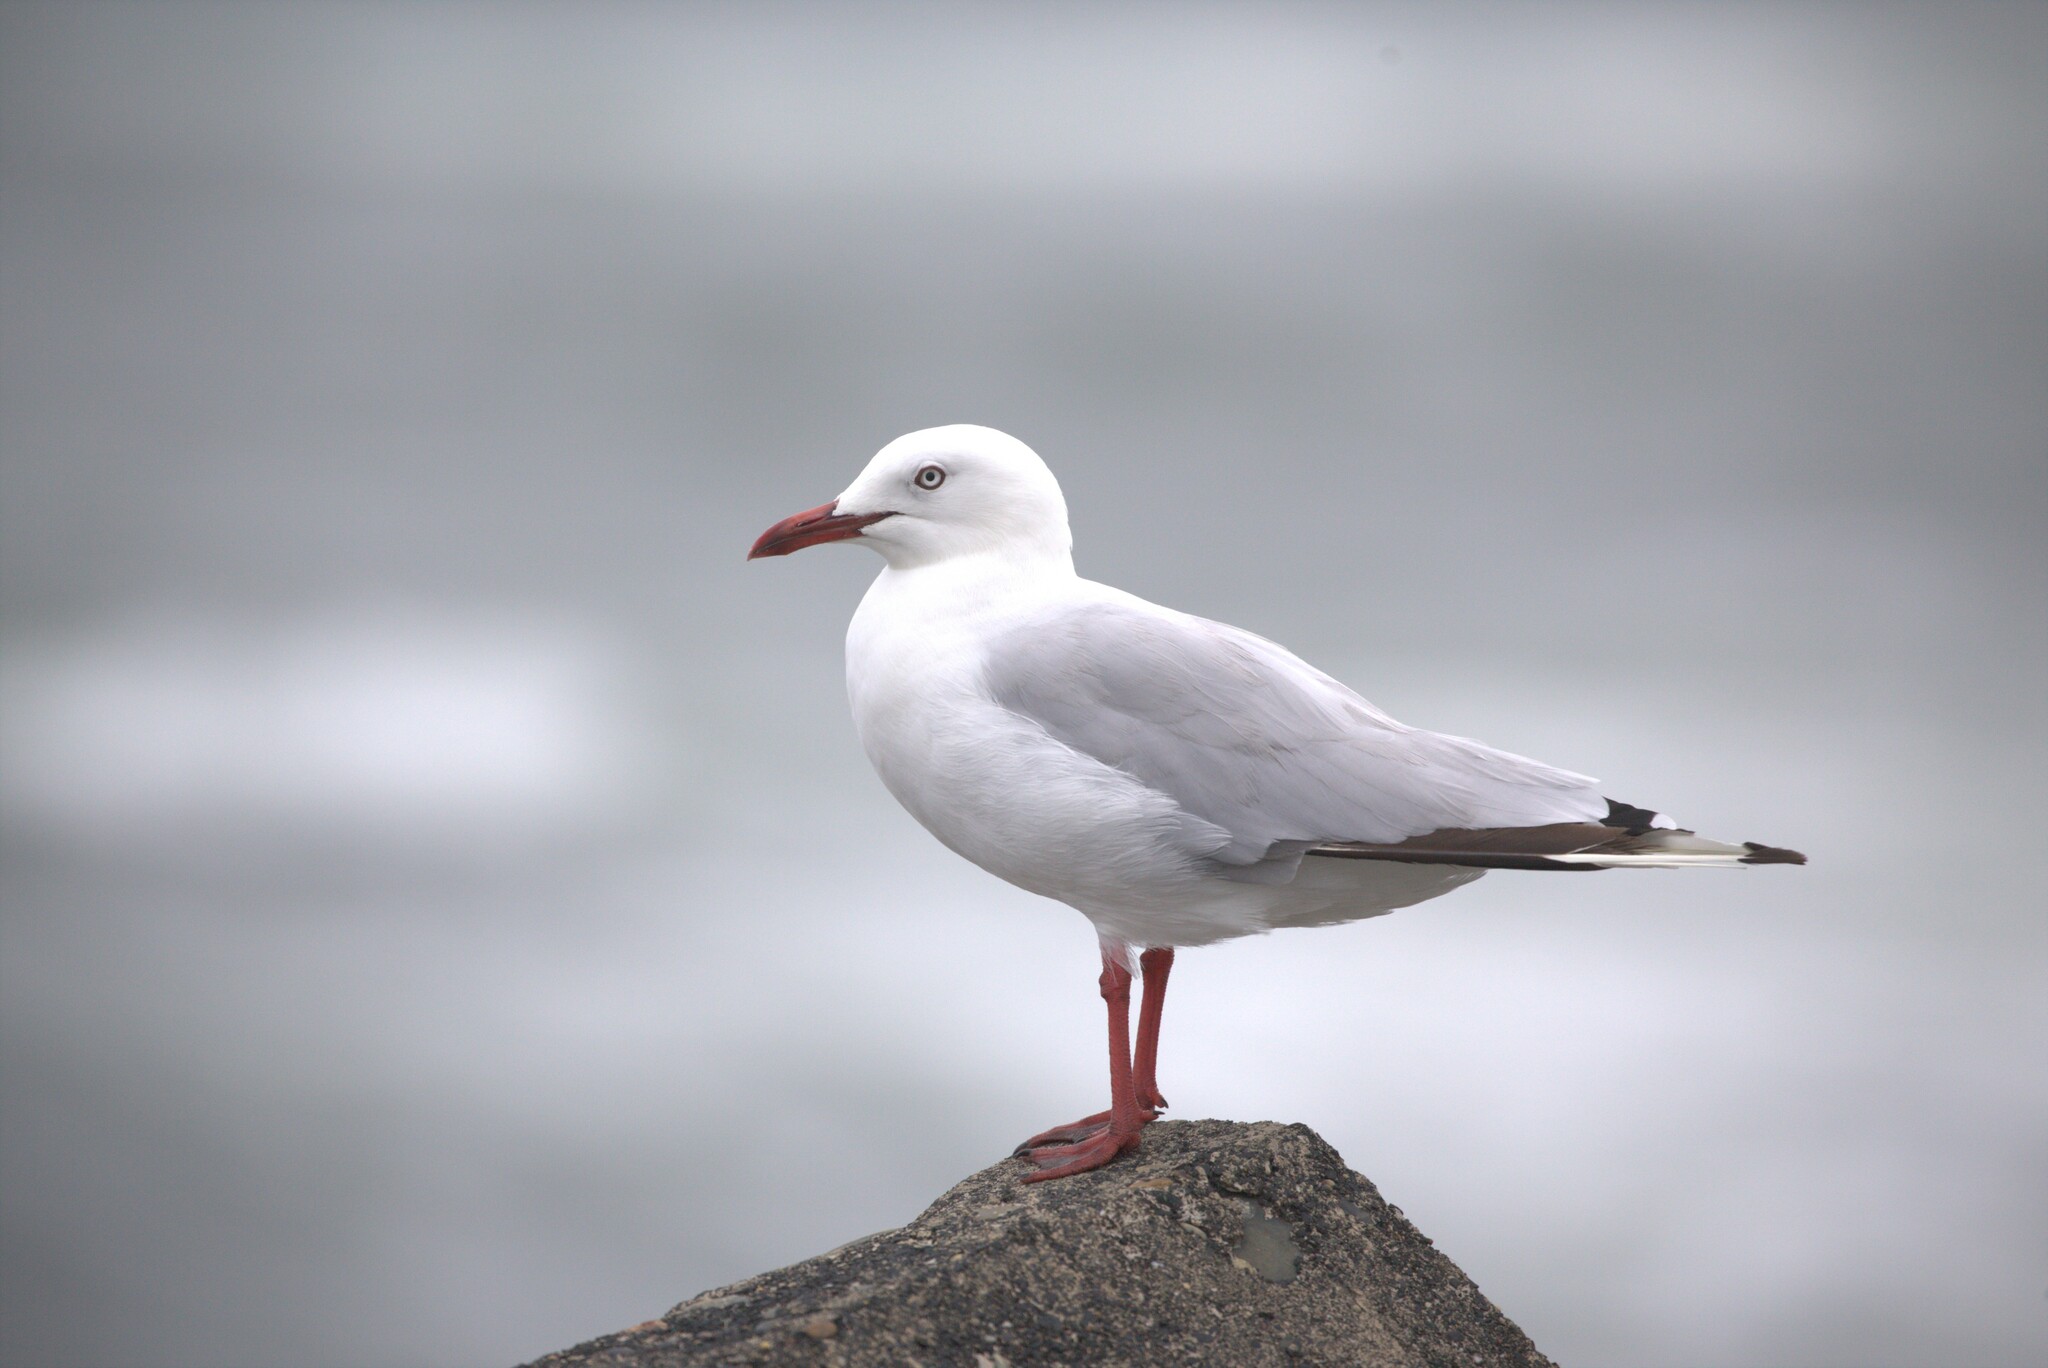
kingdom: Animalia
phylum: Chordata
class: Aves
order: Charadriiformes
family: Laridae
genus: Chroicocephalus
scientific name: Chroicocephalus novaehollandiae
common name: Silver gull
